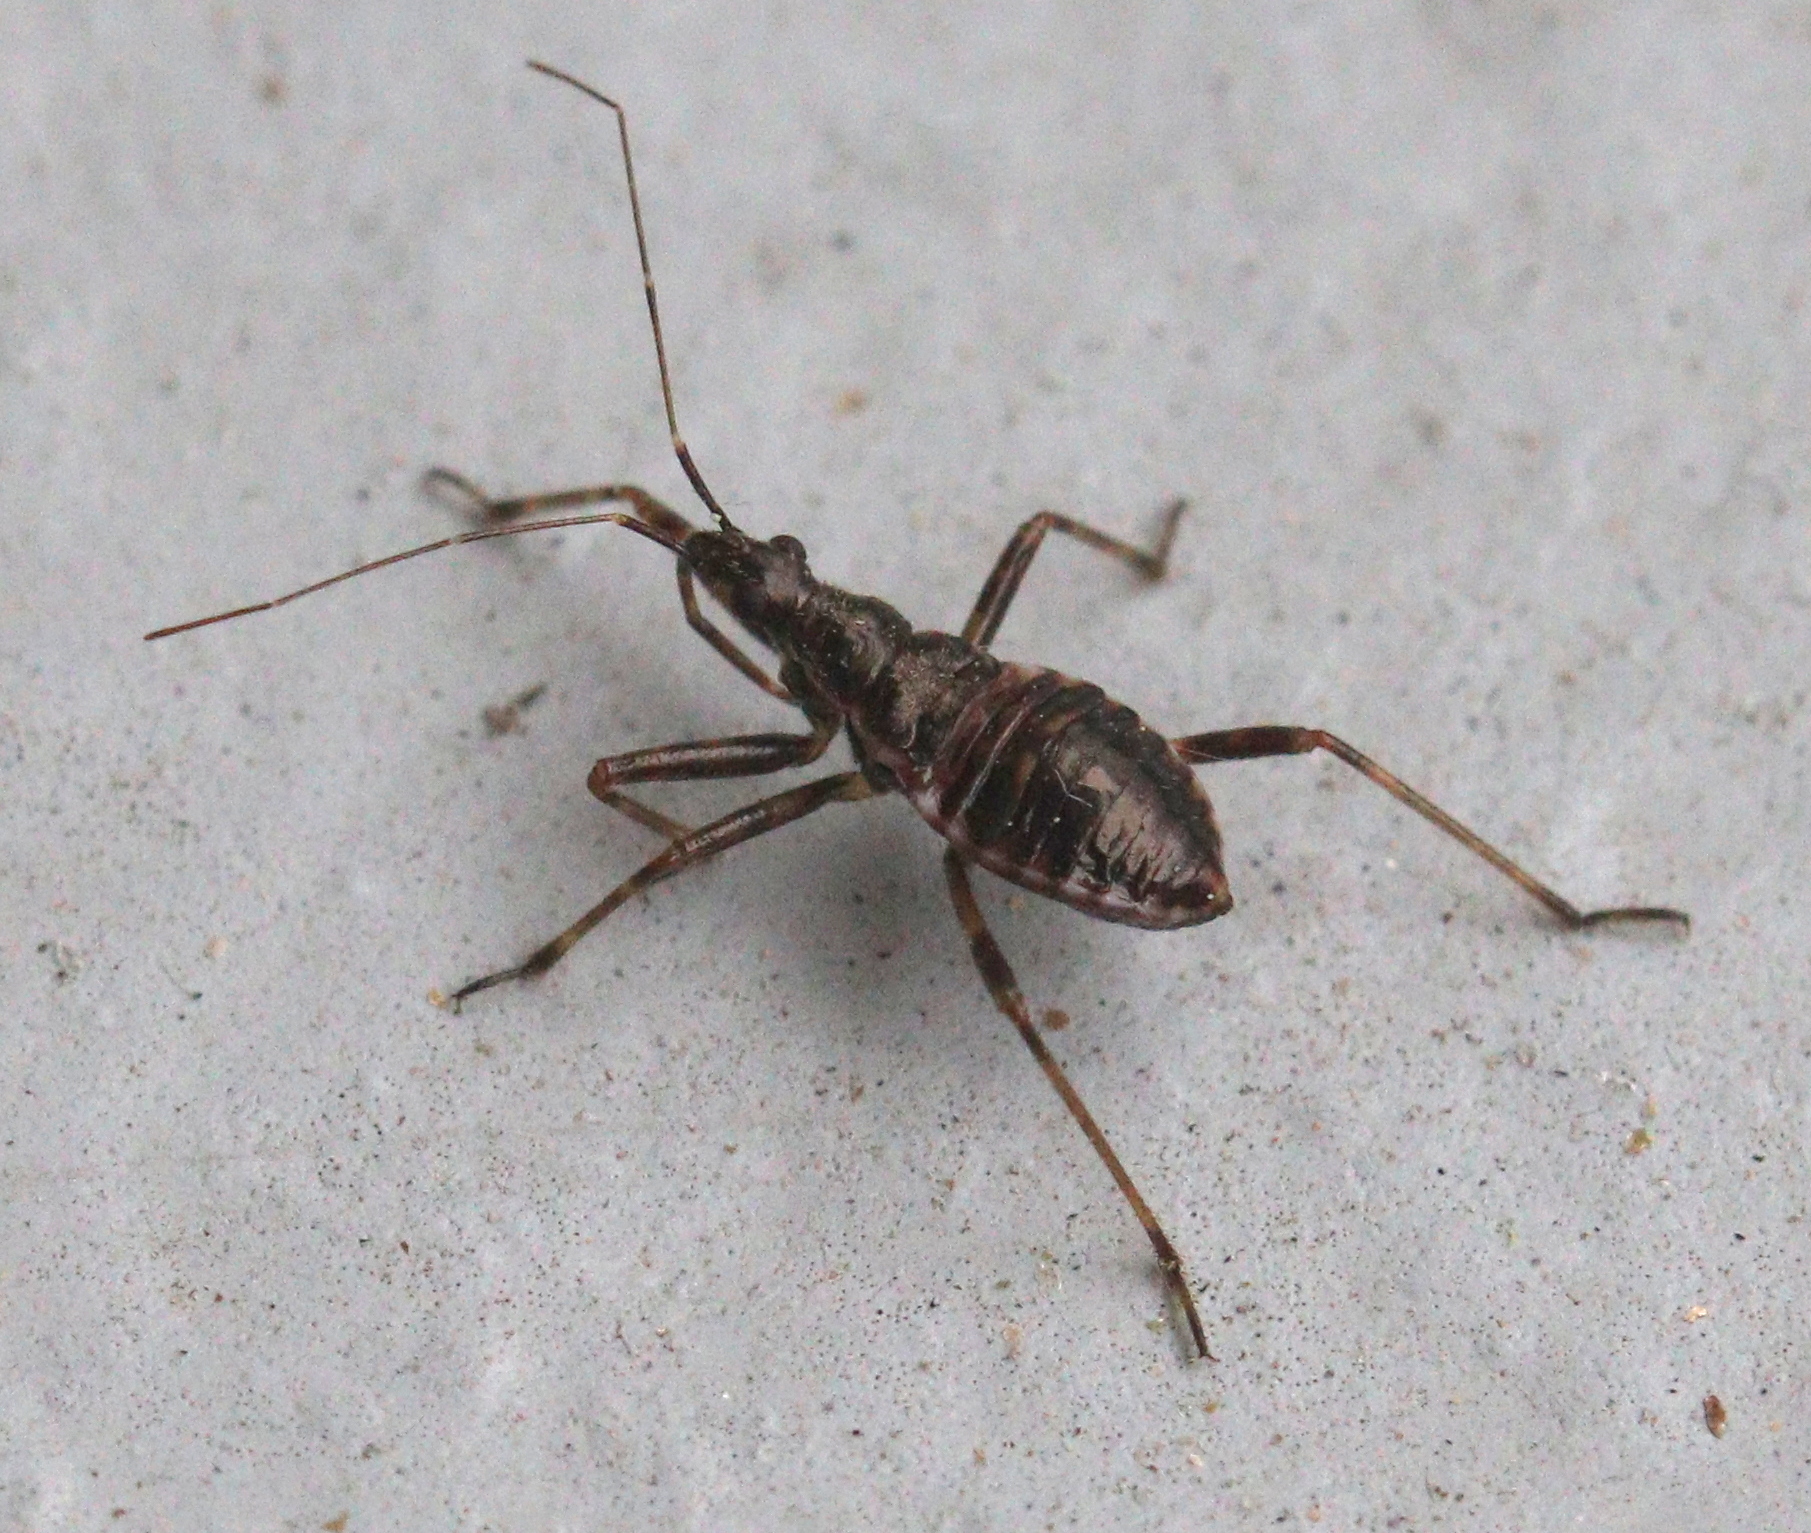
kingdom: Animalia
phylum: Arthropoda
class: Insecta
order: Hemiptera
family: Nabidae
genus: Himacerus
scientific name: Himacerus apterus
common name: Tree damsel bug
